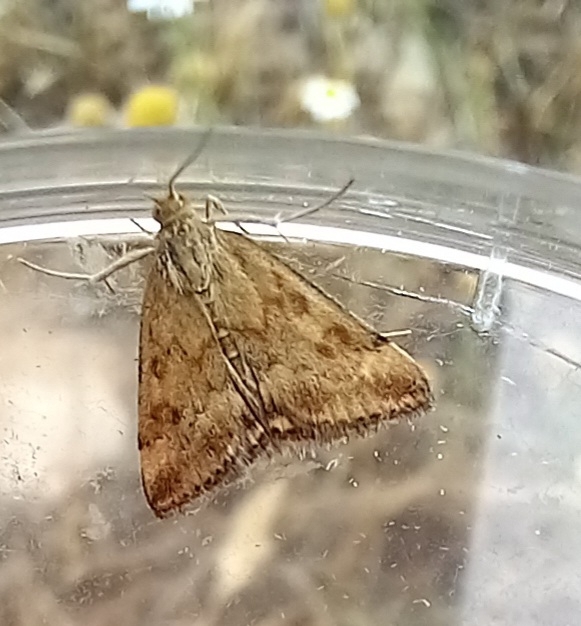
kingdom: Animalia
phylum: Arthropoda
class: Insecta
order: Lepidoptera
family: Crambidae
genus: Pyrausta
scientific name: Pyrausta despicata
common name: Straw-barred pearl
